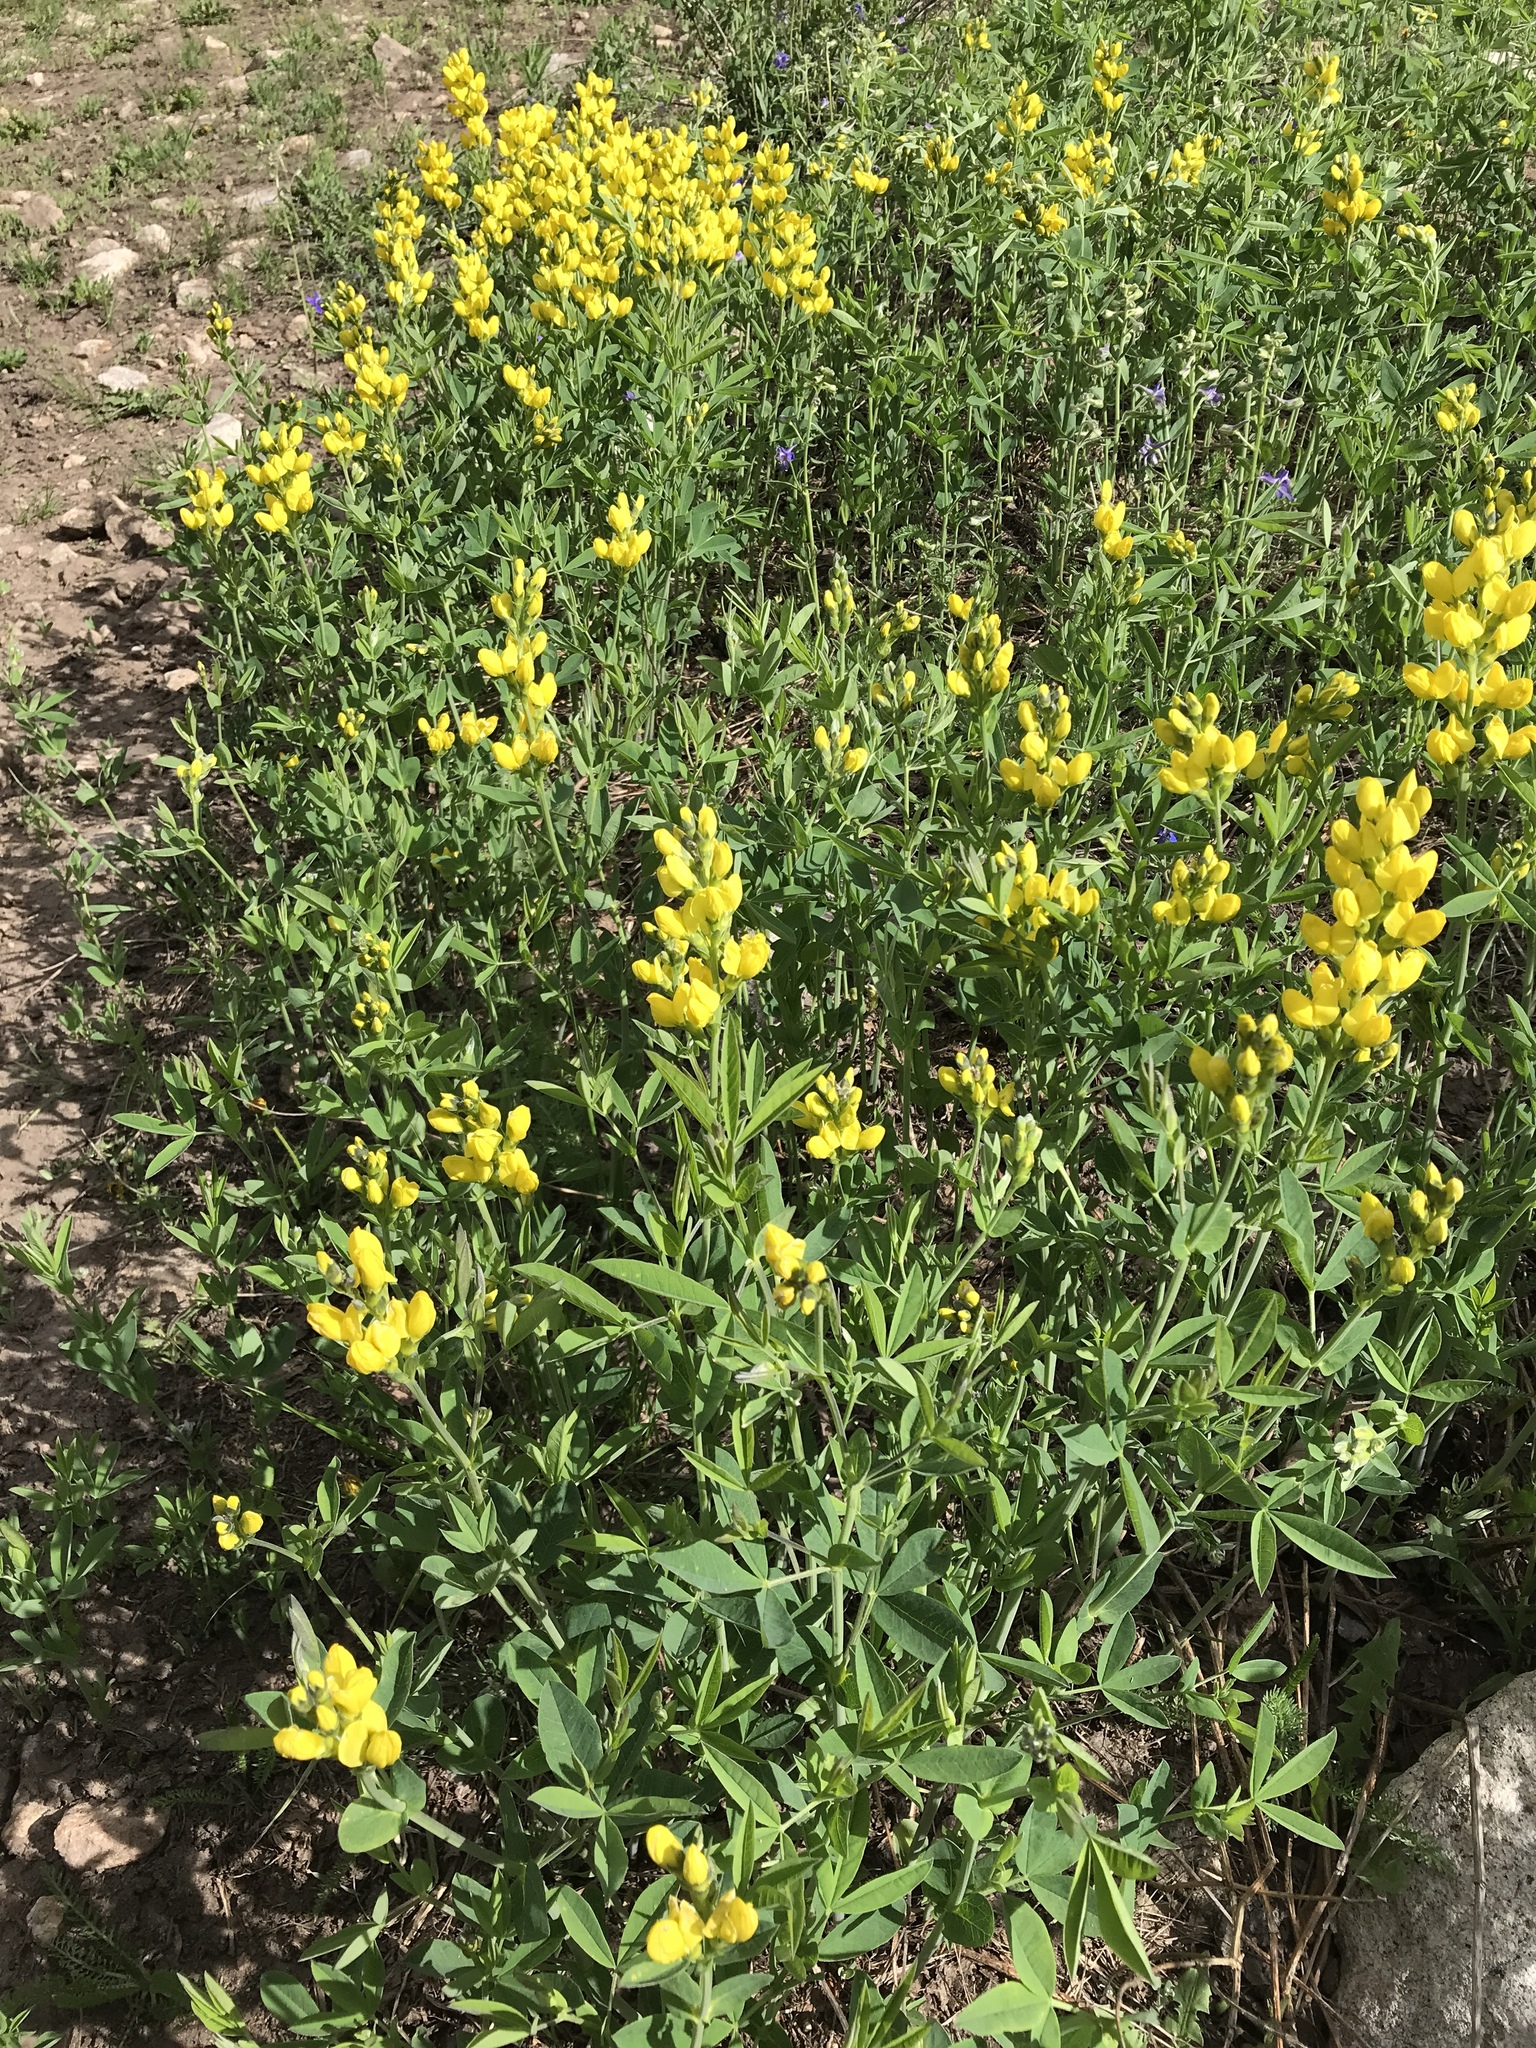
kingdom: Plantae
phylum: Tracheophyta
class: Magnoliopsida
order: Fabales
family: Fabaceae
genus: Thermopsis
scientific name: Thermopsis montana
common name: False lupin
